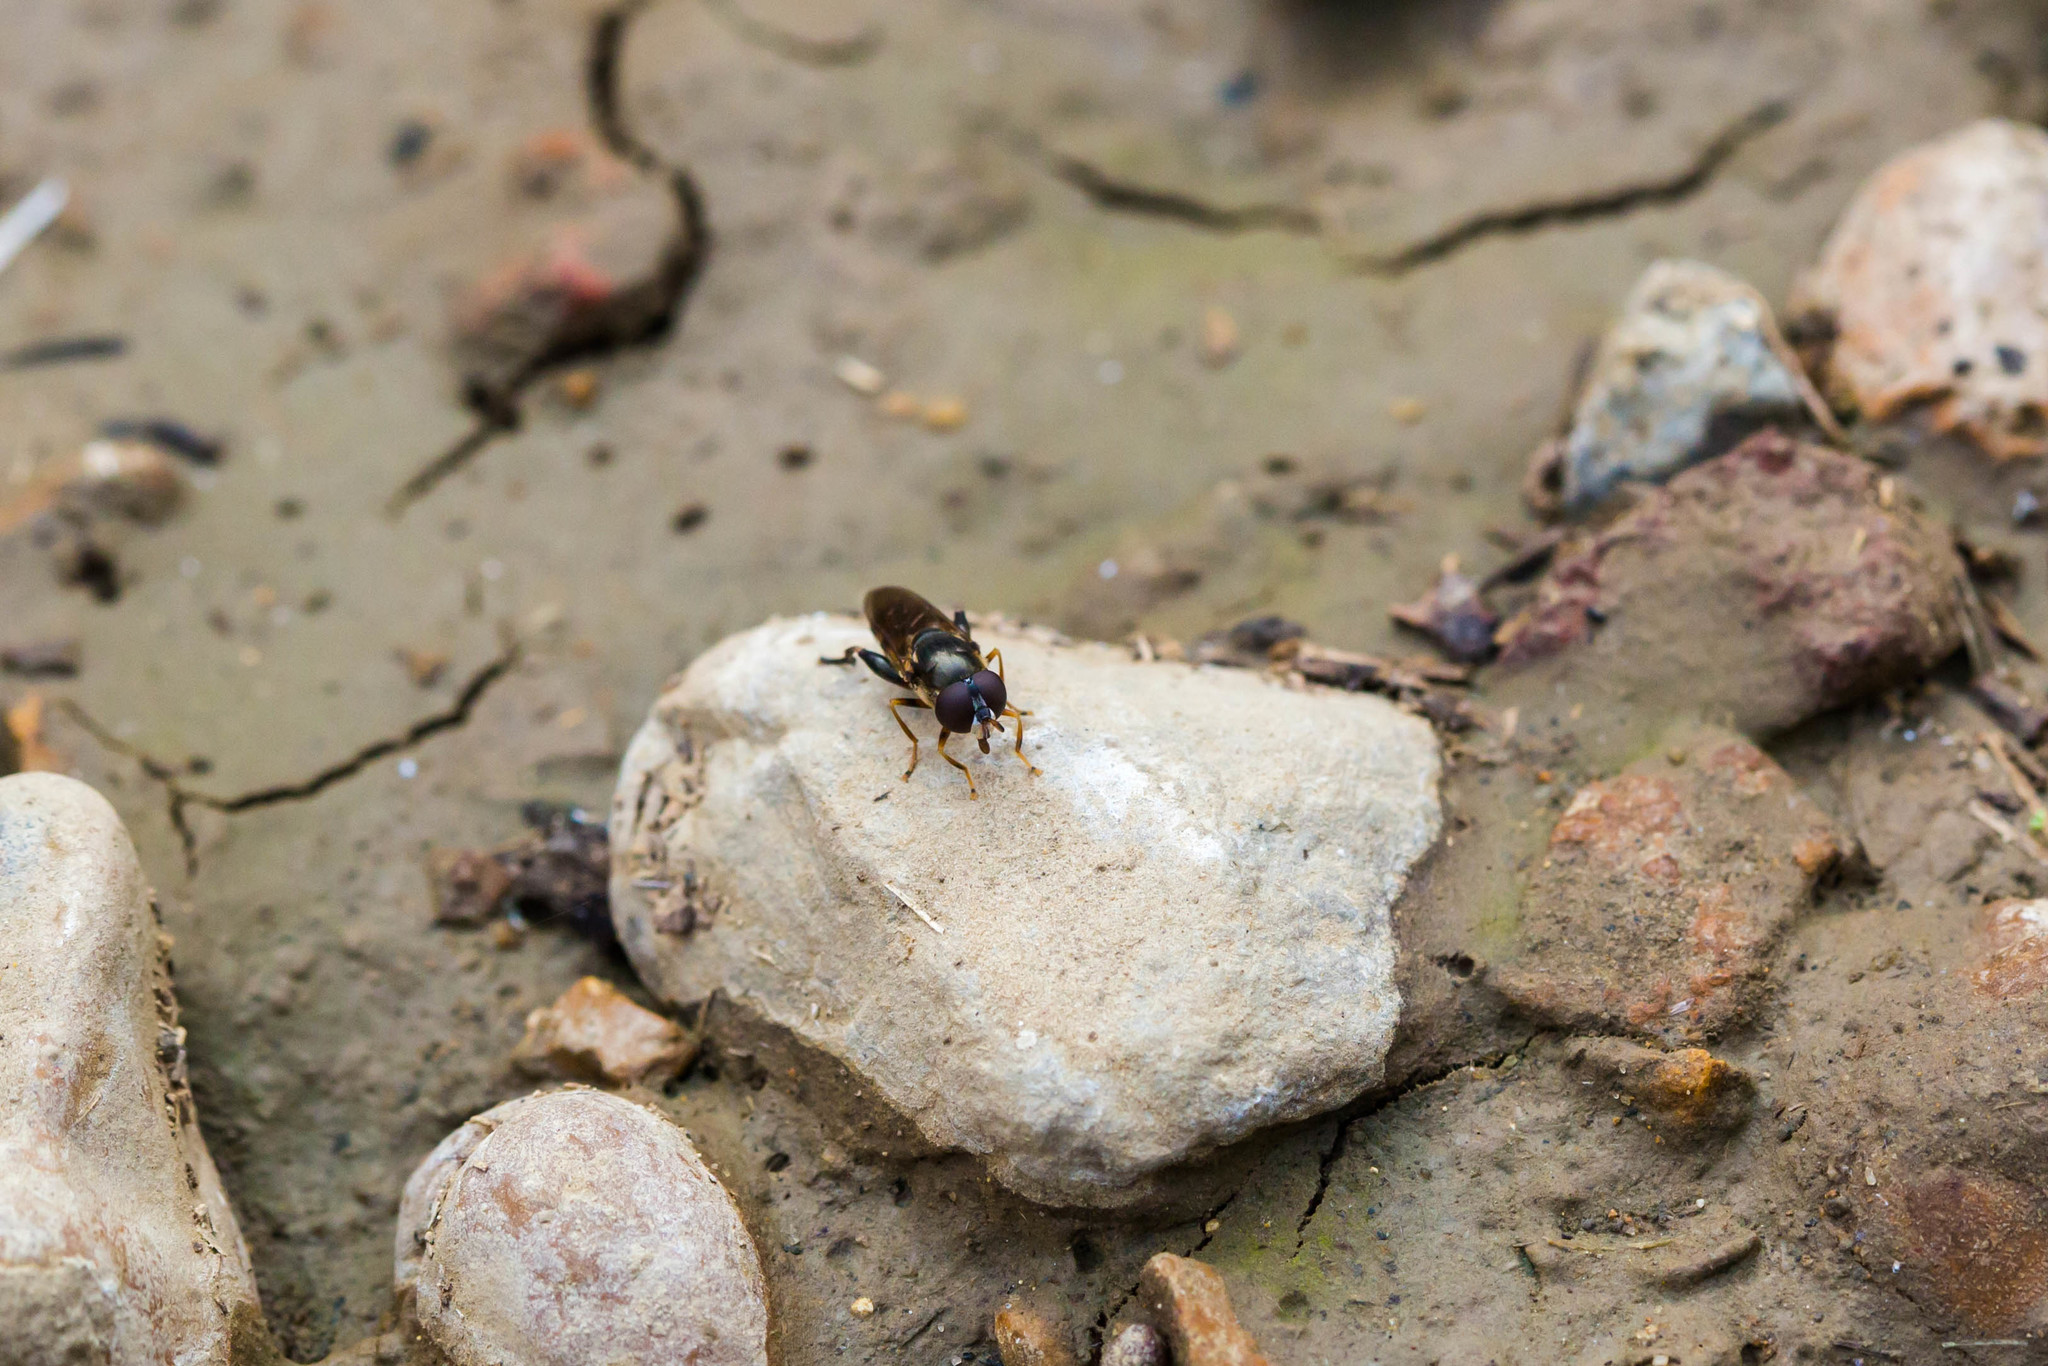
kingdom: Animalia
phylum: Arthropoda
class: Insecta
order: Diptera
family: Syrphidae
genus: Tropidia
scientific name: Tropidia albistylum
